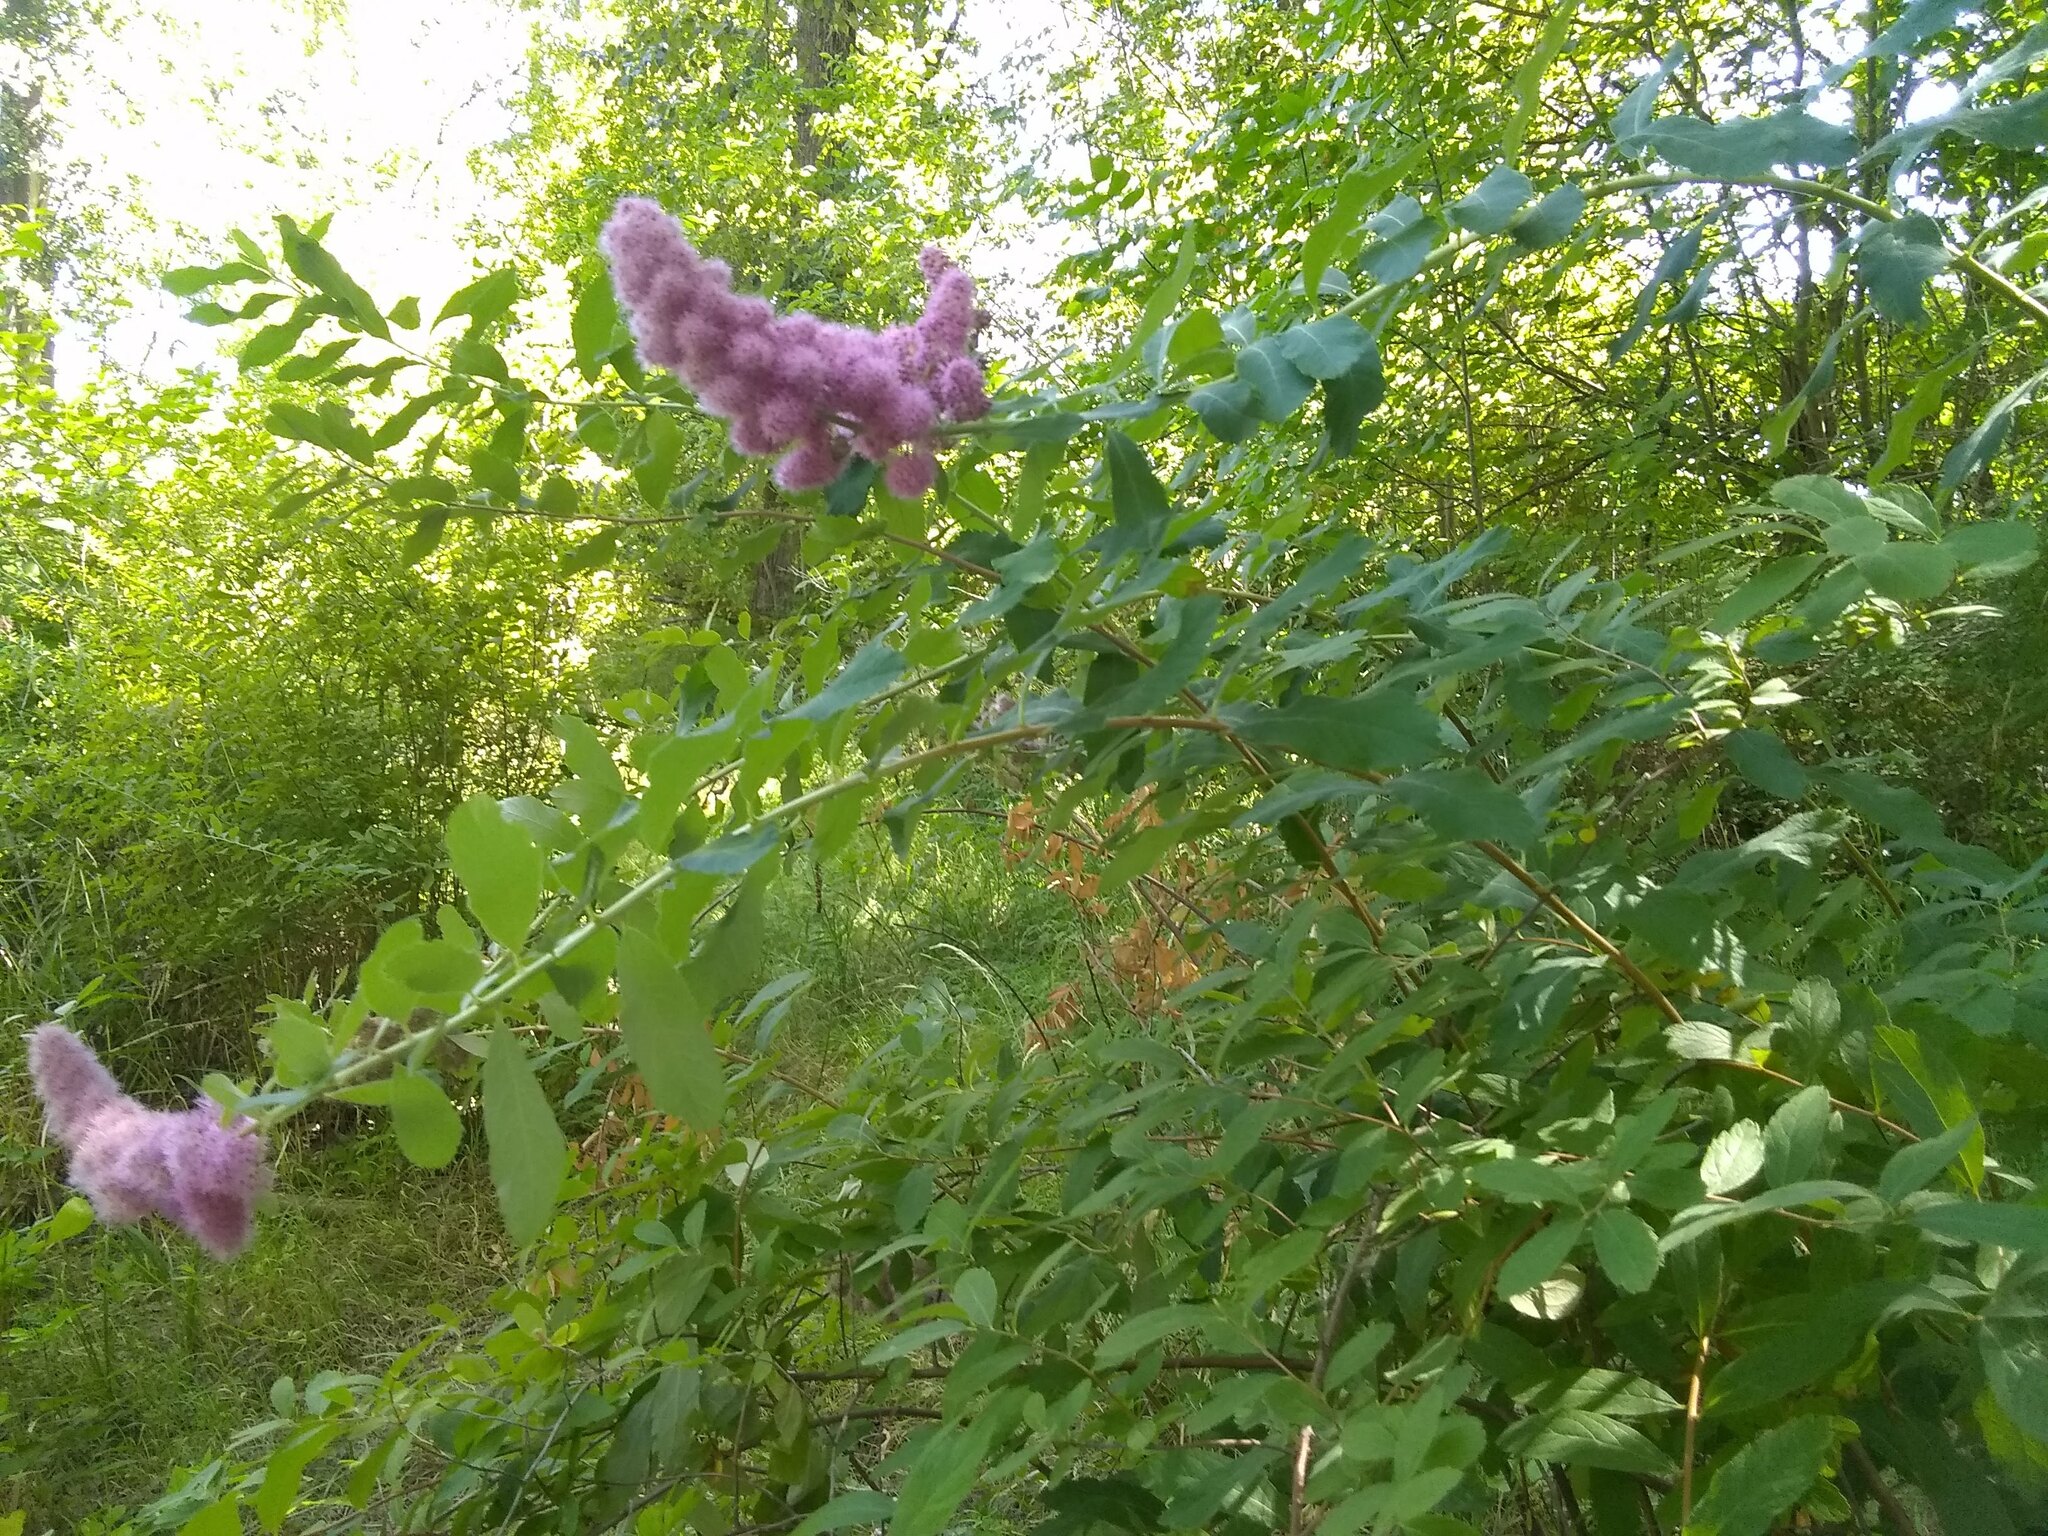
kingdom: Plantae
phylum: Tracheophyta
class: Magnoliopsida
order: Rosales
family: Rosaceae
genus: Spiraea
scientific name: Spiraea douglasii
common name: Steeplebush
